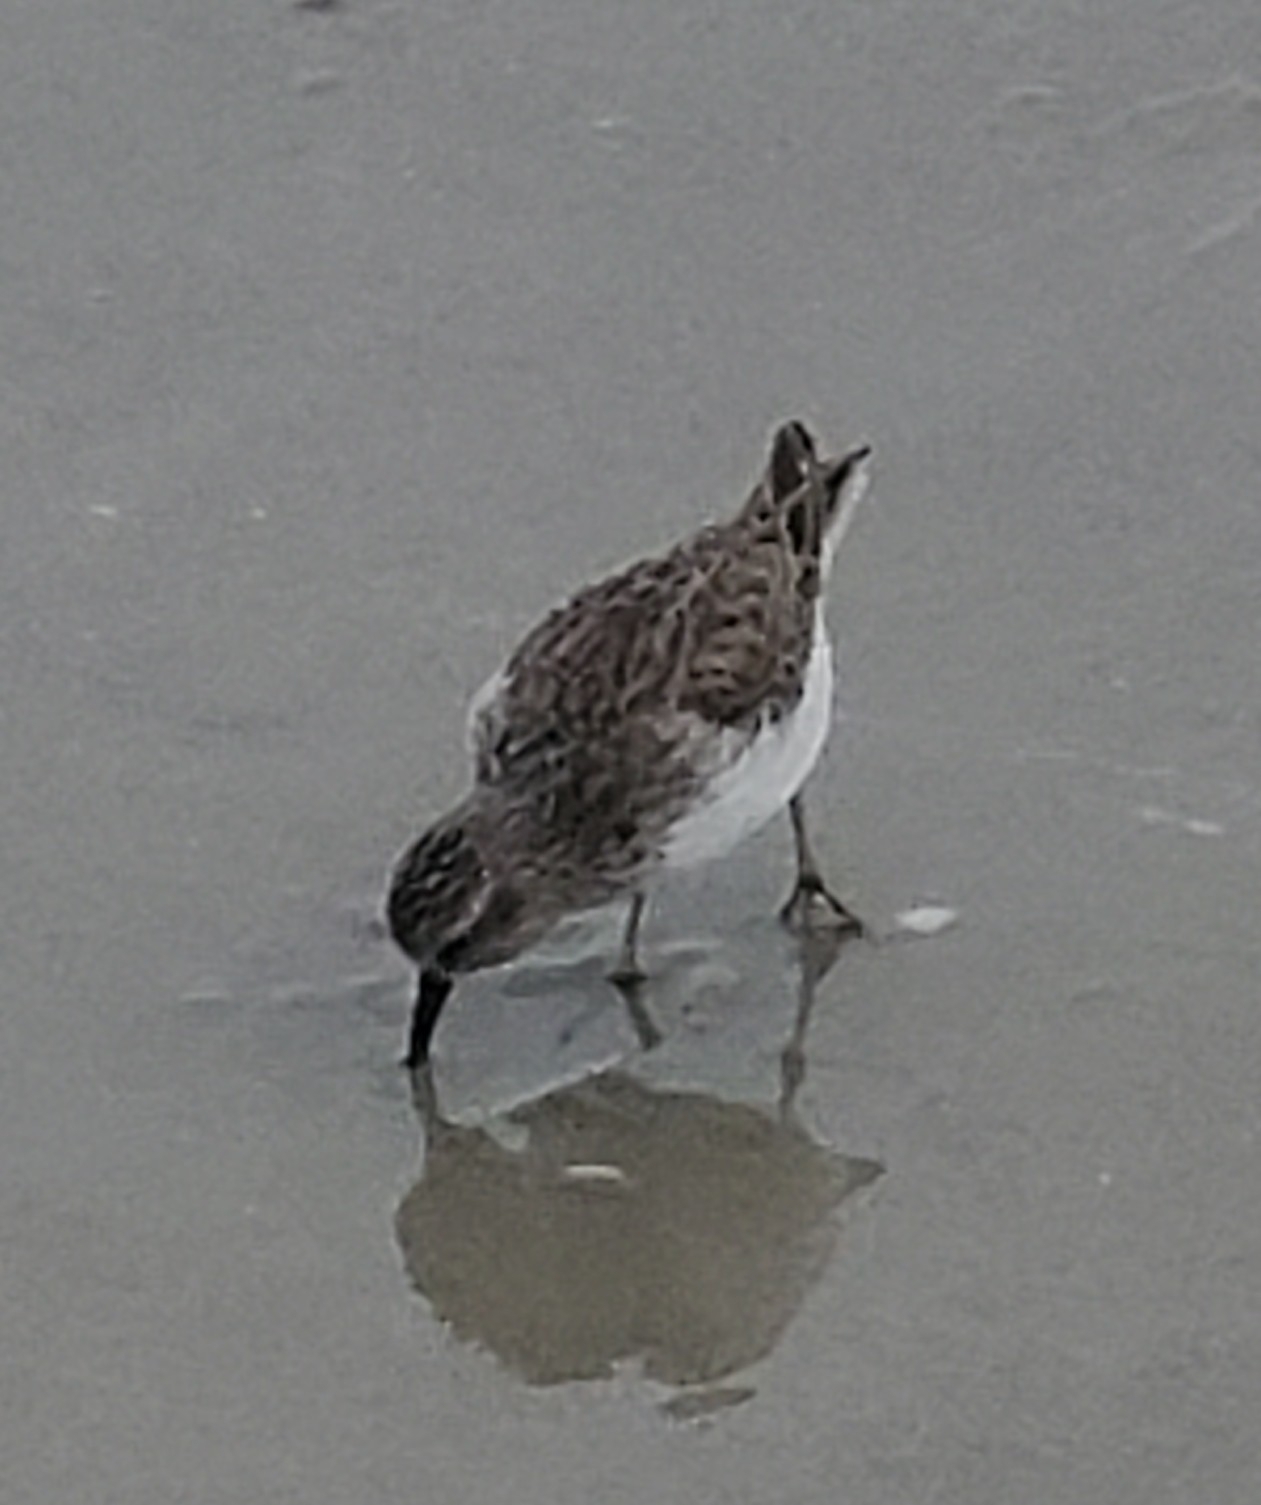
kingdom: Animalia
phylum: Chordata
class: Aves
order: Charadriiformes
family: Scolopacidae
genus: Calidris
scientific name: Calidris minutilla
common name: Least sandpiper
